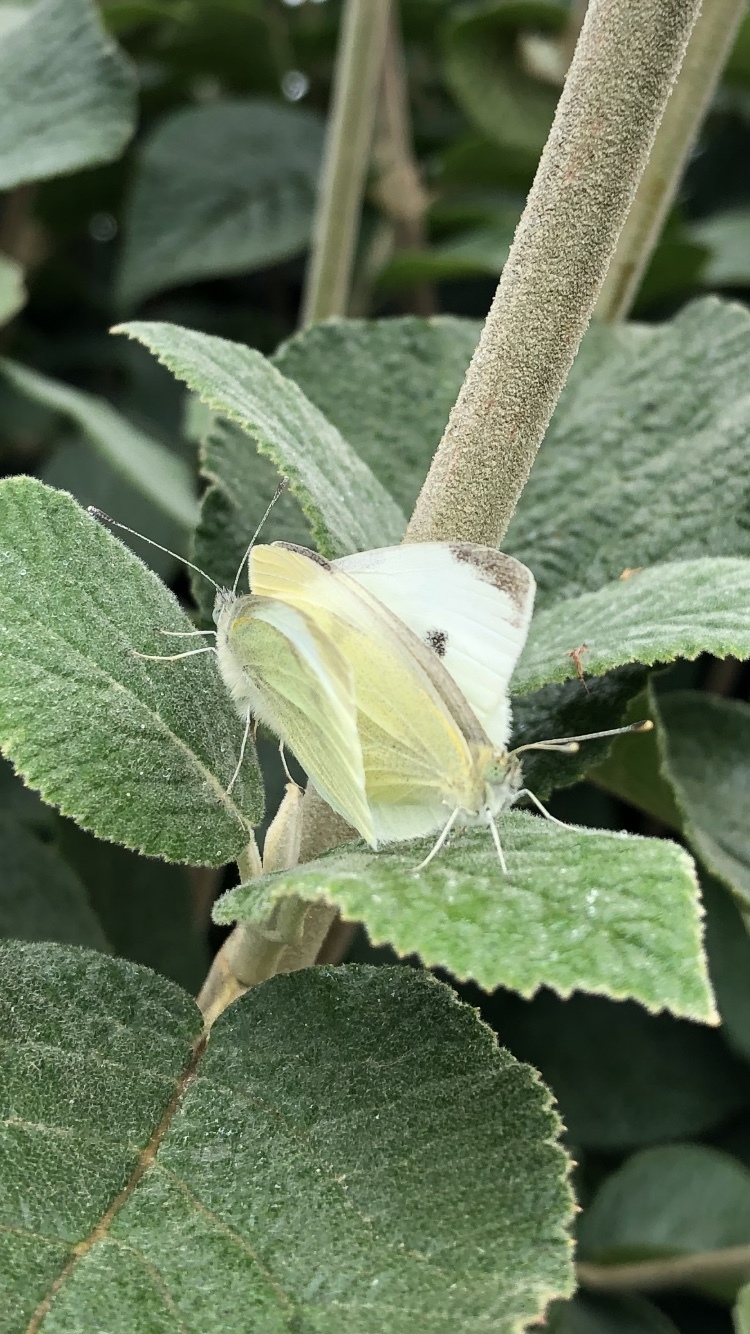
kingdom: Animalia
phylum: Arthropoda
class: Insecta
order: Lepidoptera
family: Pieridae
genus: Pieris
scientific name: Pieris rapae
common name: Small white
